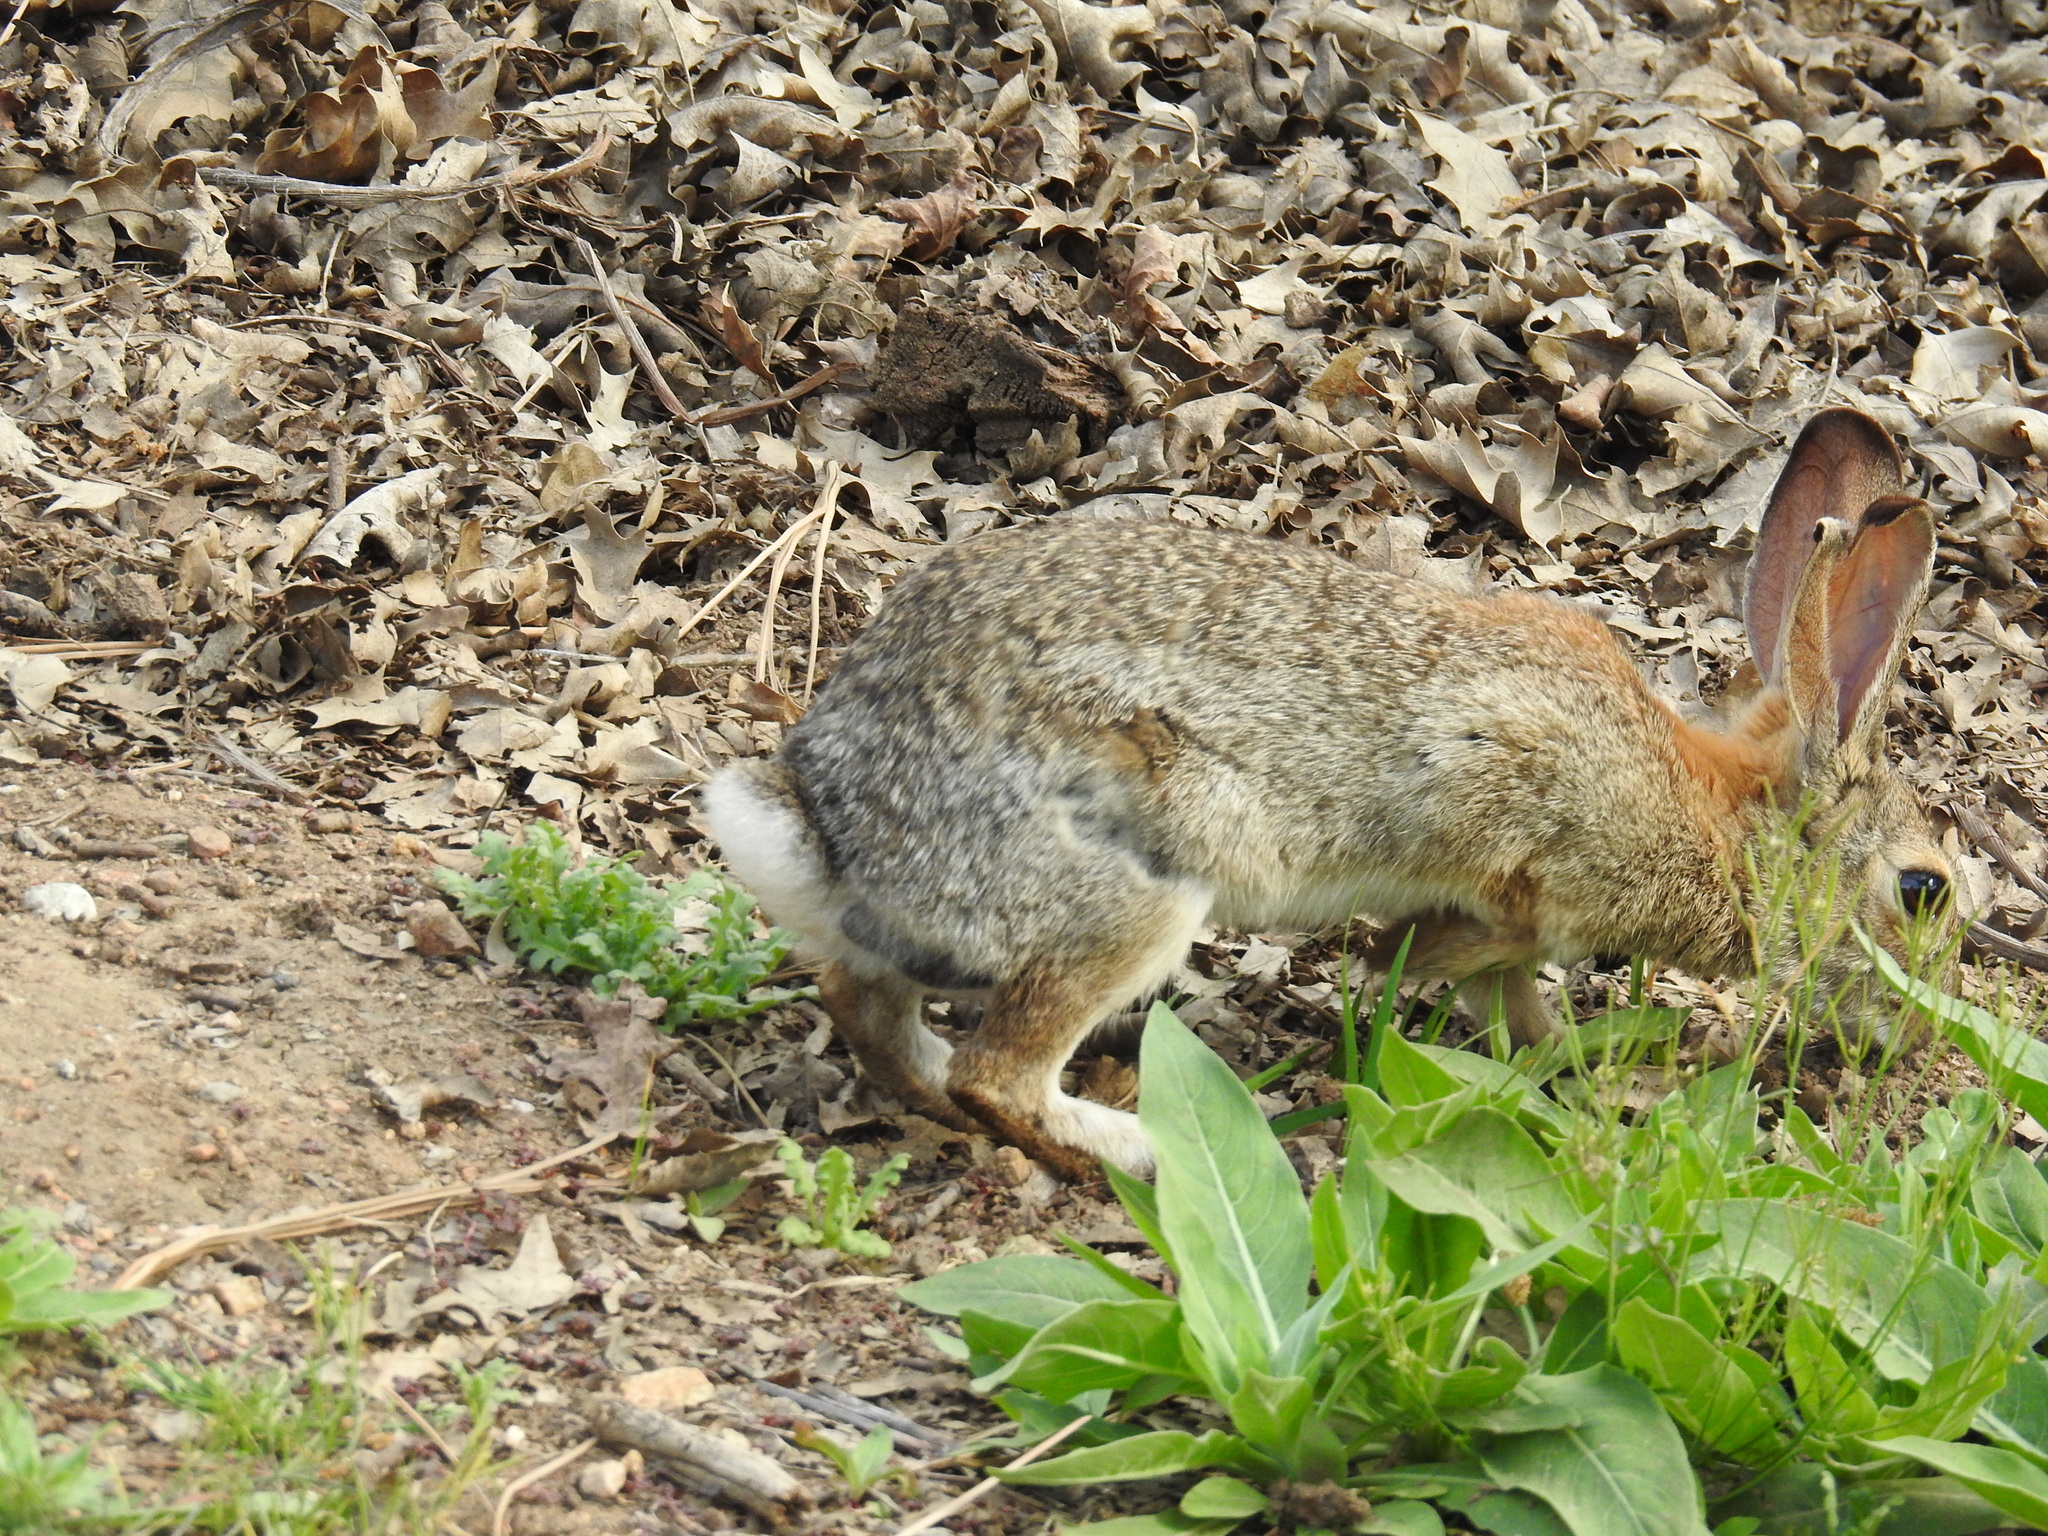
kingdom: Animalia
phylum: Chordata
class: Mammalia
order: Lagomorpha
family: Leporidae
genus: Sylvilagus
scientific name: Sylvilagus audubonii
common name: Desert cottontail
